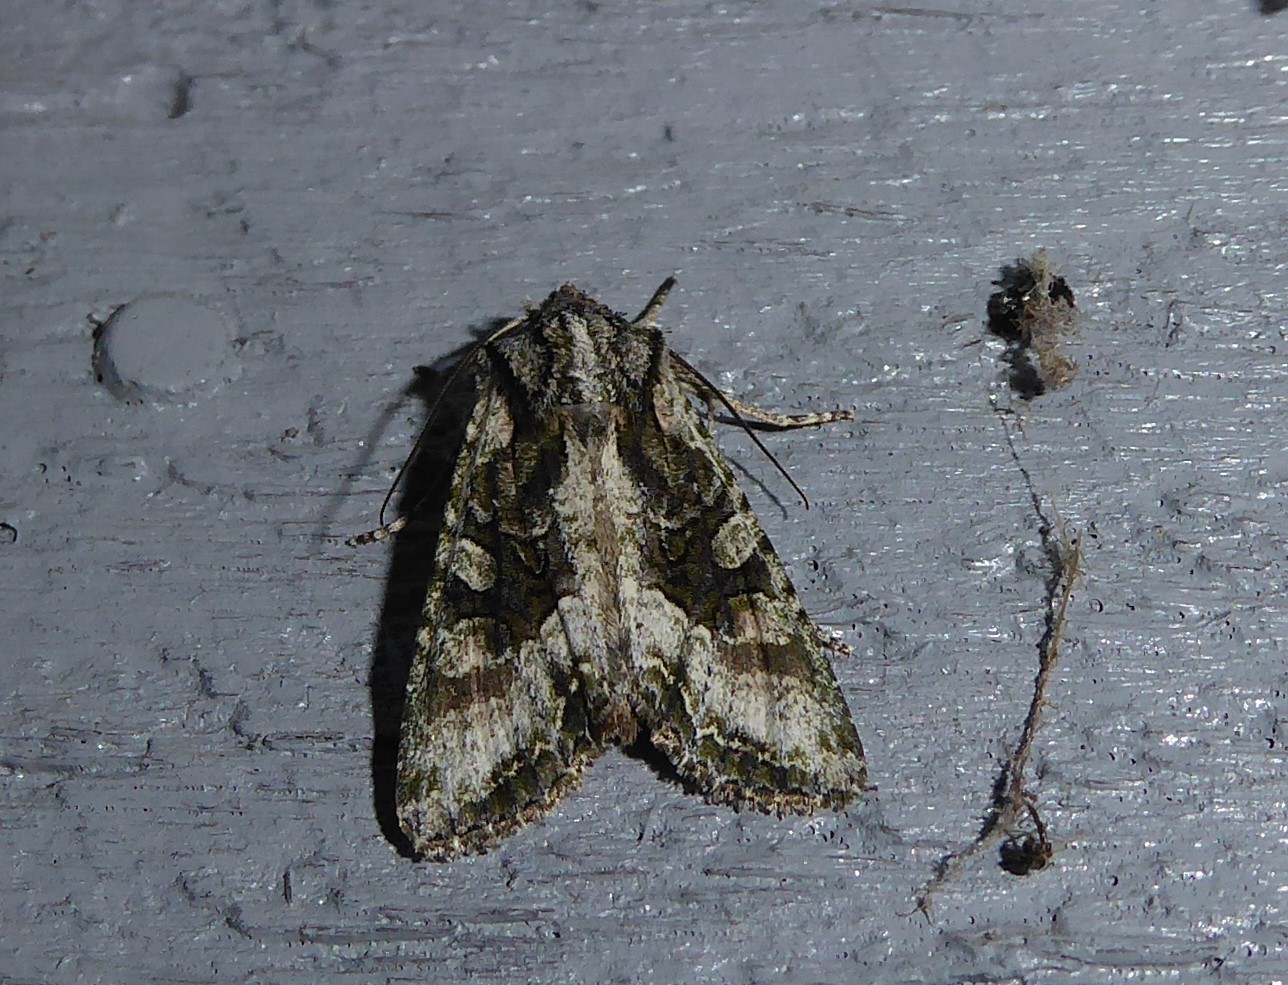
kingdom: Animalia
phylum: Arthropoda
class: Insecta
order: Lepidoptera
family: Noctuidae
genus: Ichneutica
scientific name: Ichneutica mutans
